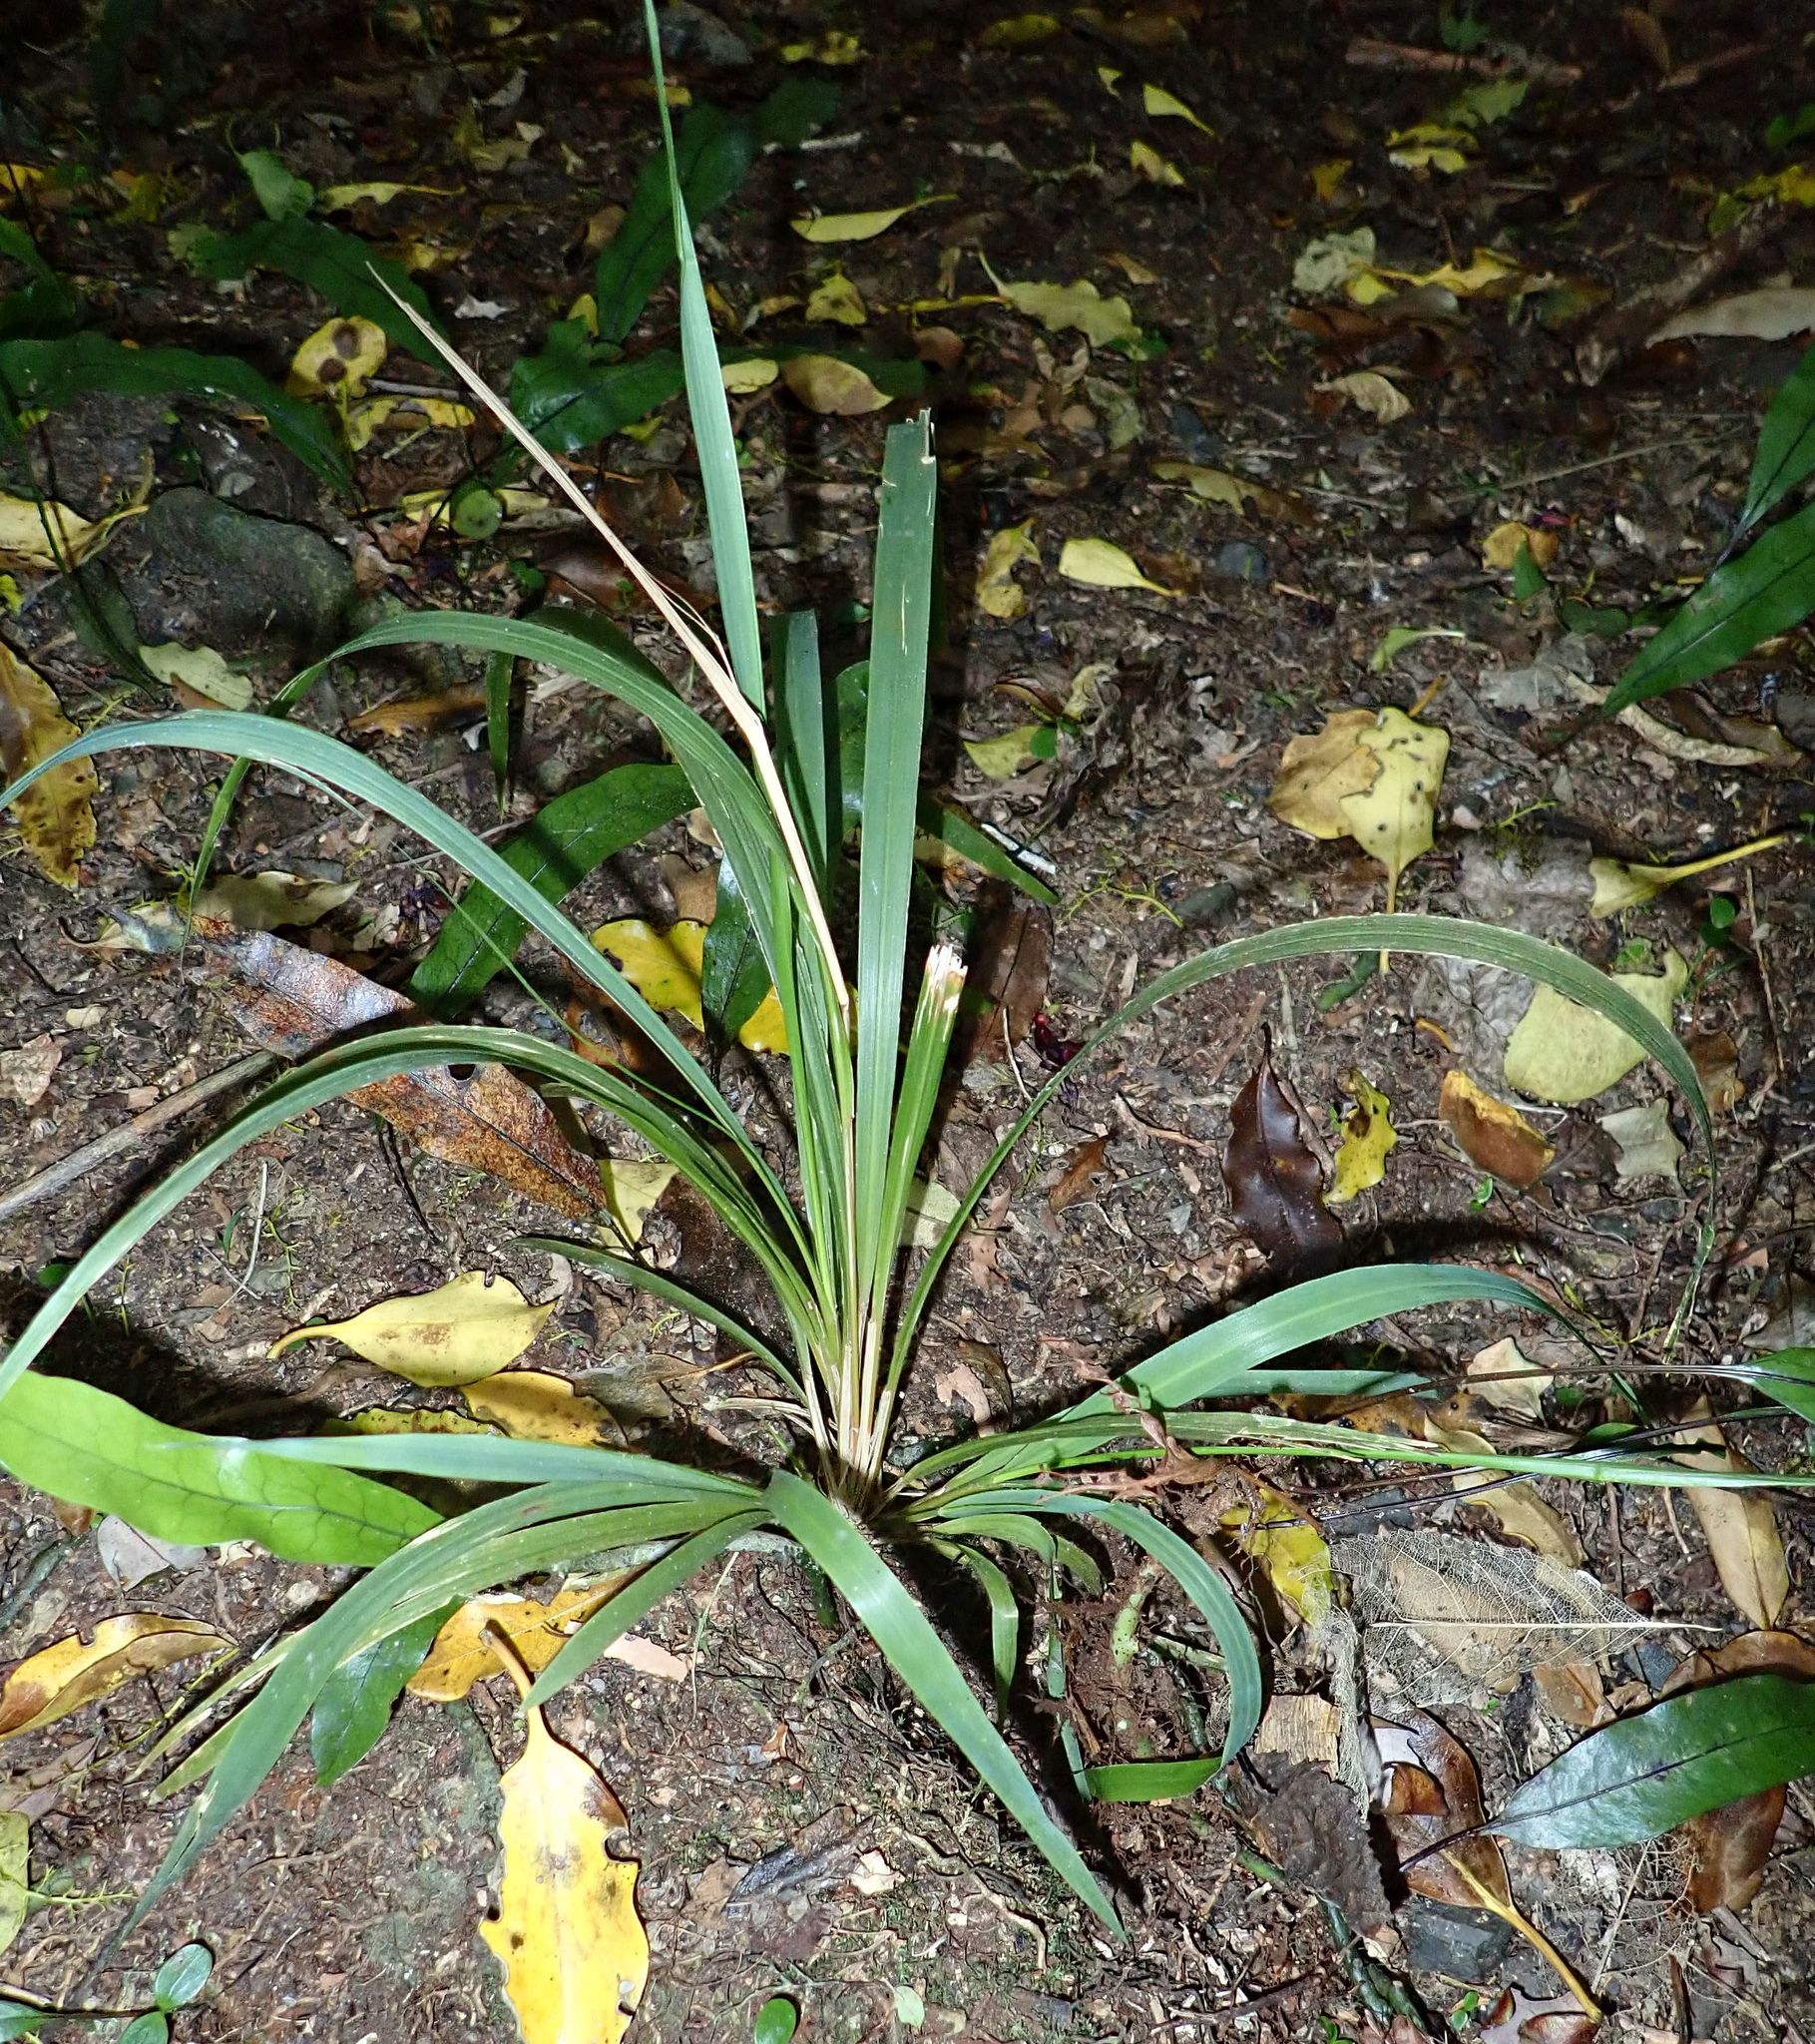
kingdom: Plantae
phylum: Tracheophyta
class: Liliopsida
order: Poales
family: Poaceae
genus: Ehrharta
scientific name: Ehrharta diplax
